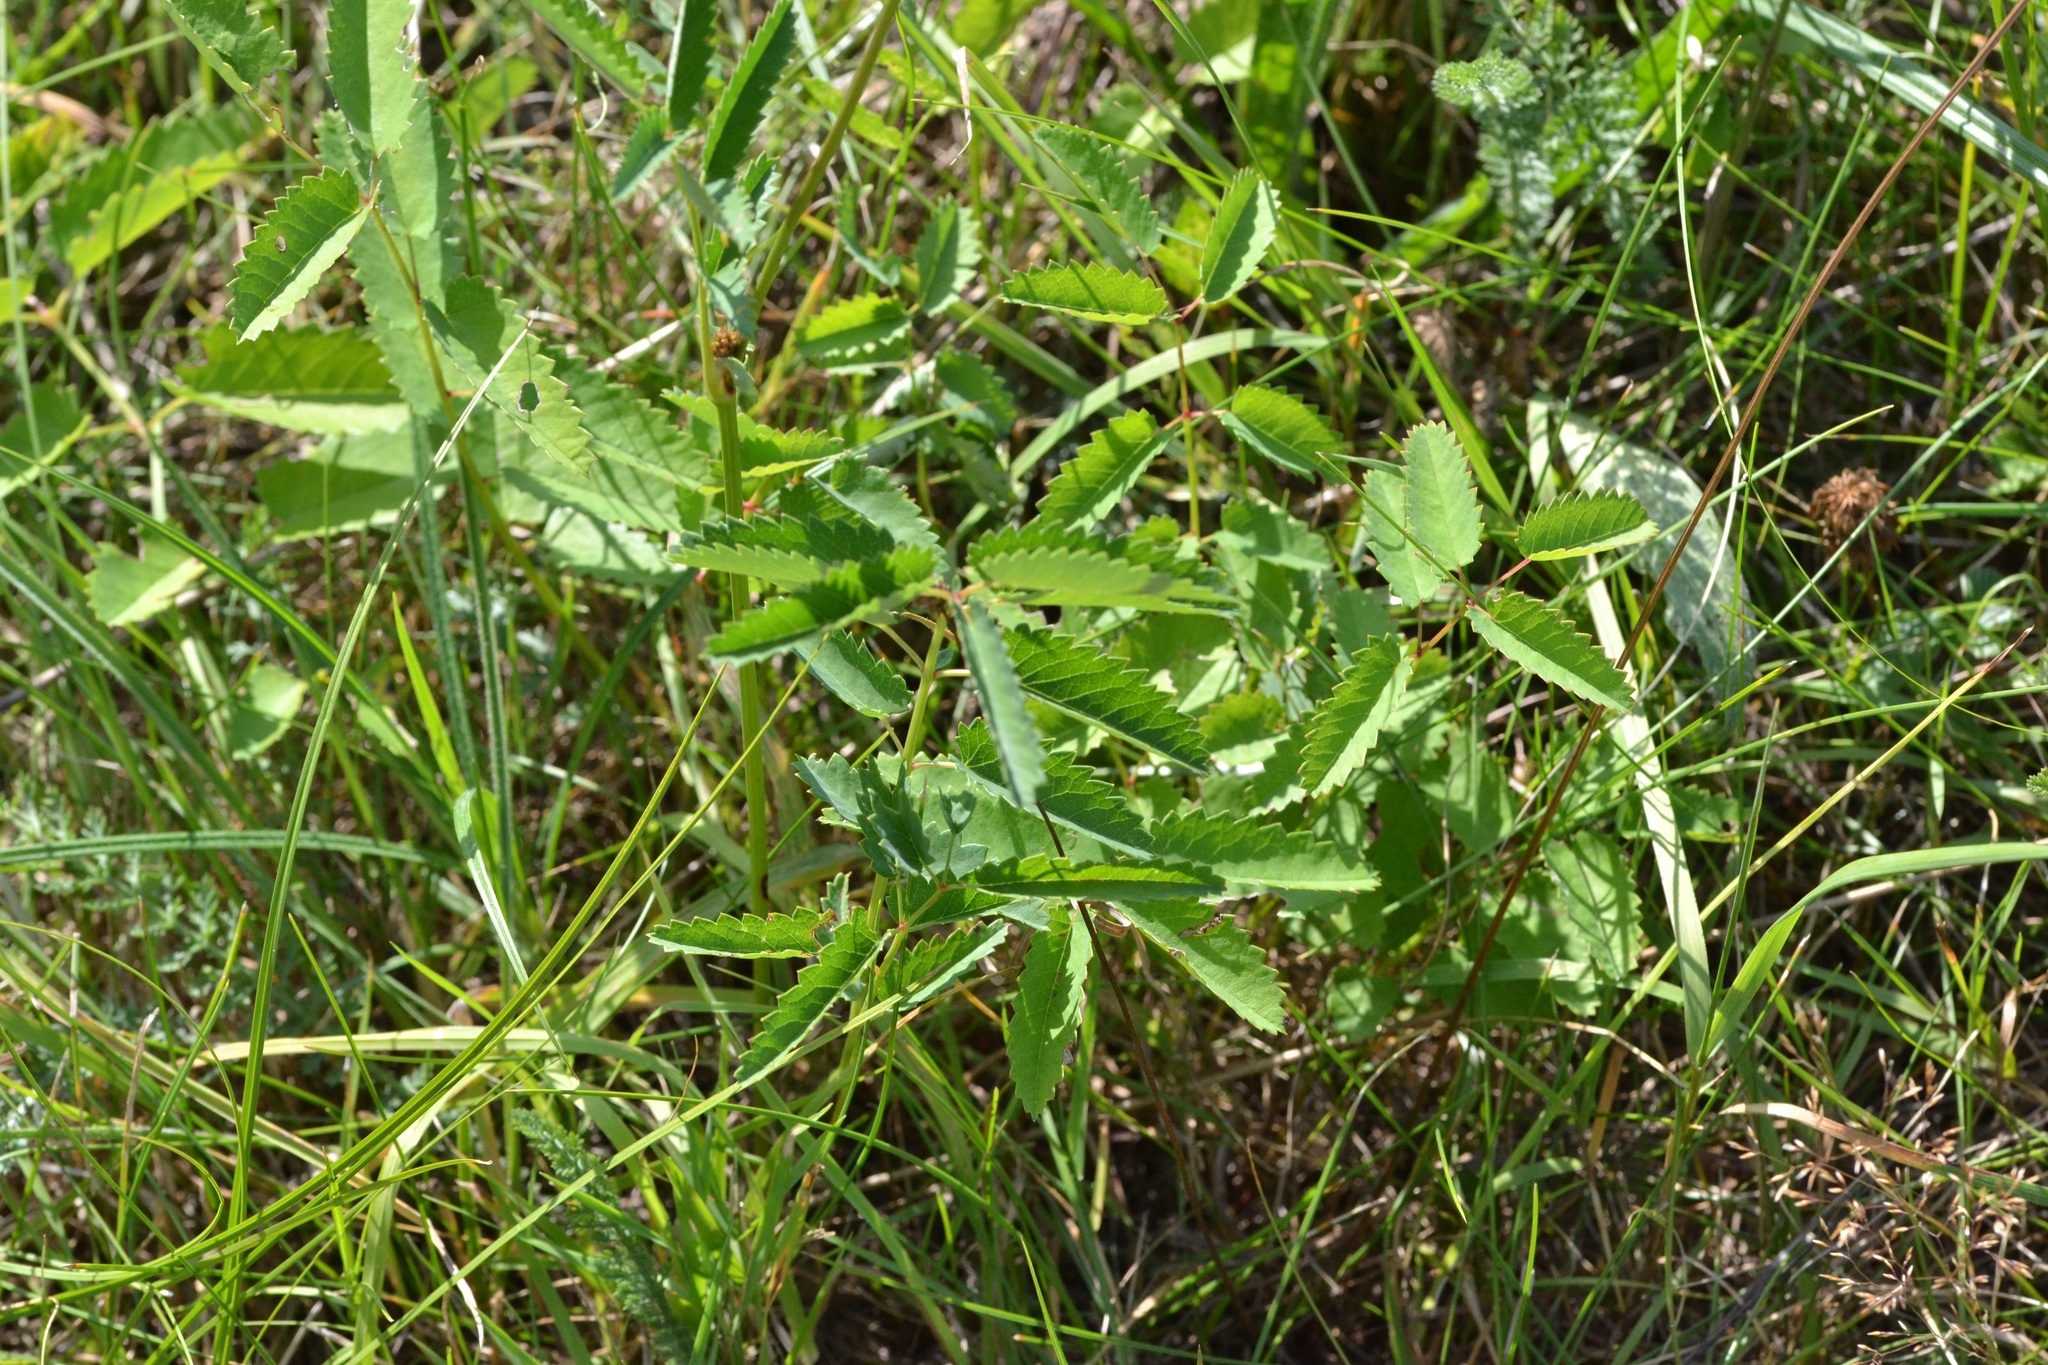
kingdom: Plantae
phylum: Tracheophyta
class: Magnoliopsida
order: Rosales
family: Rosaceae
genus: Sanguisorba
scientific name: Sanguisorba officinalis
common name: Great burnet
